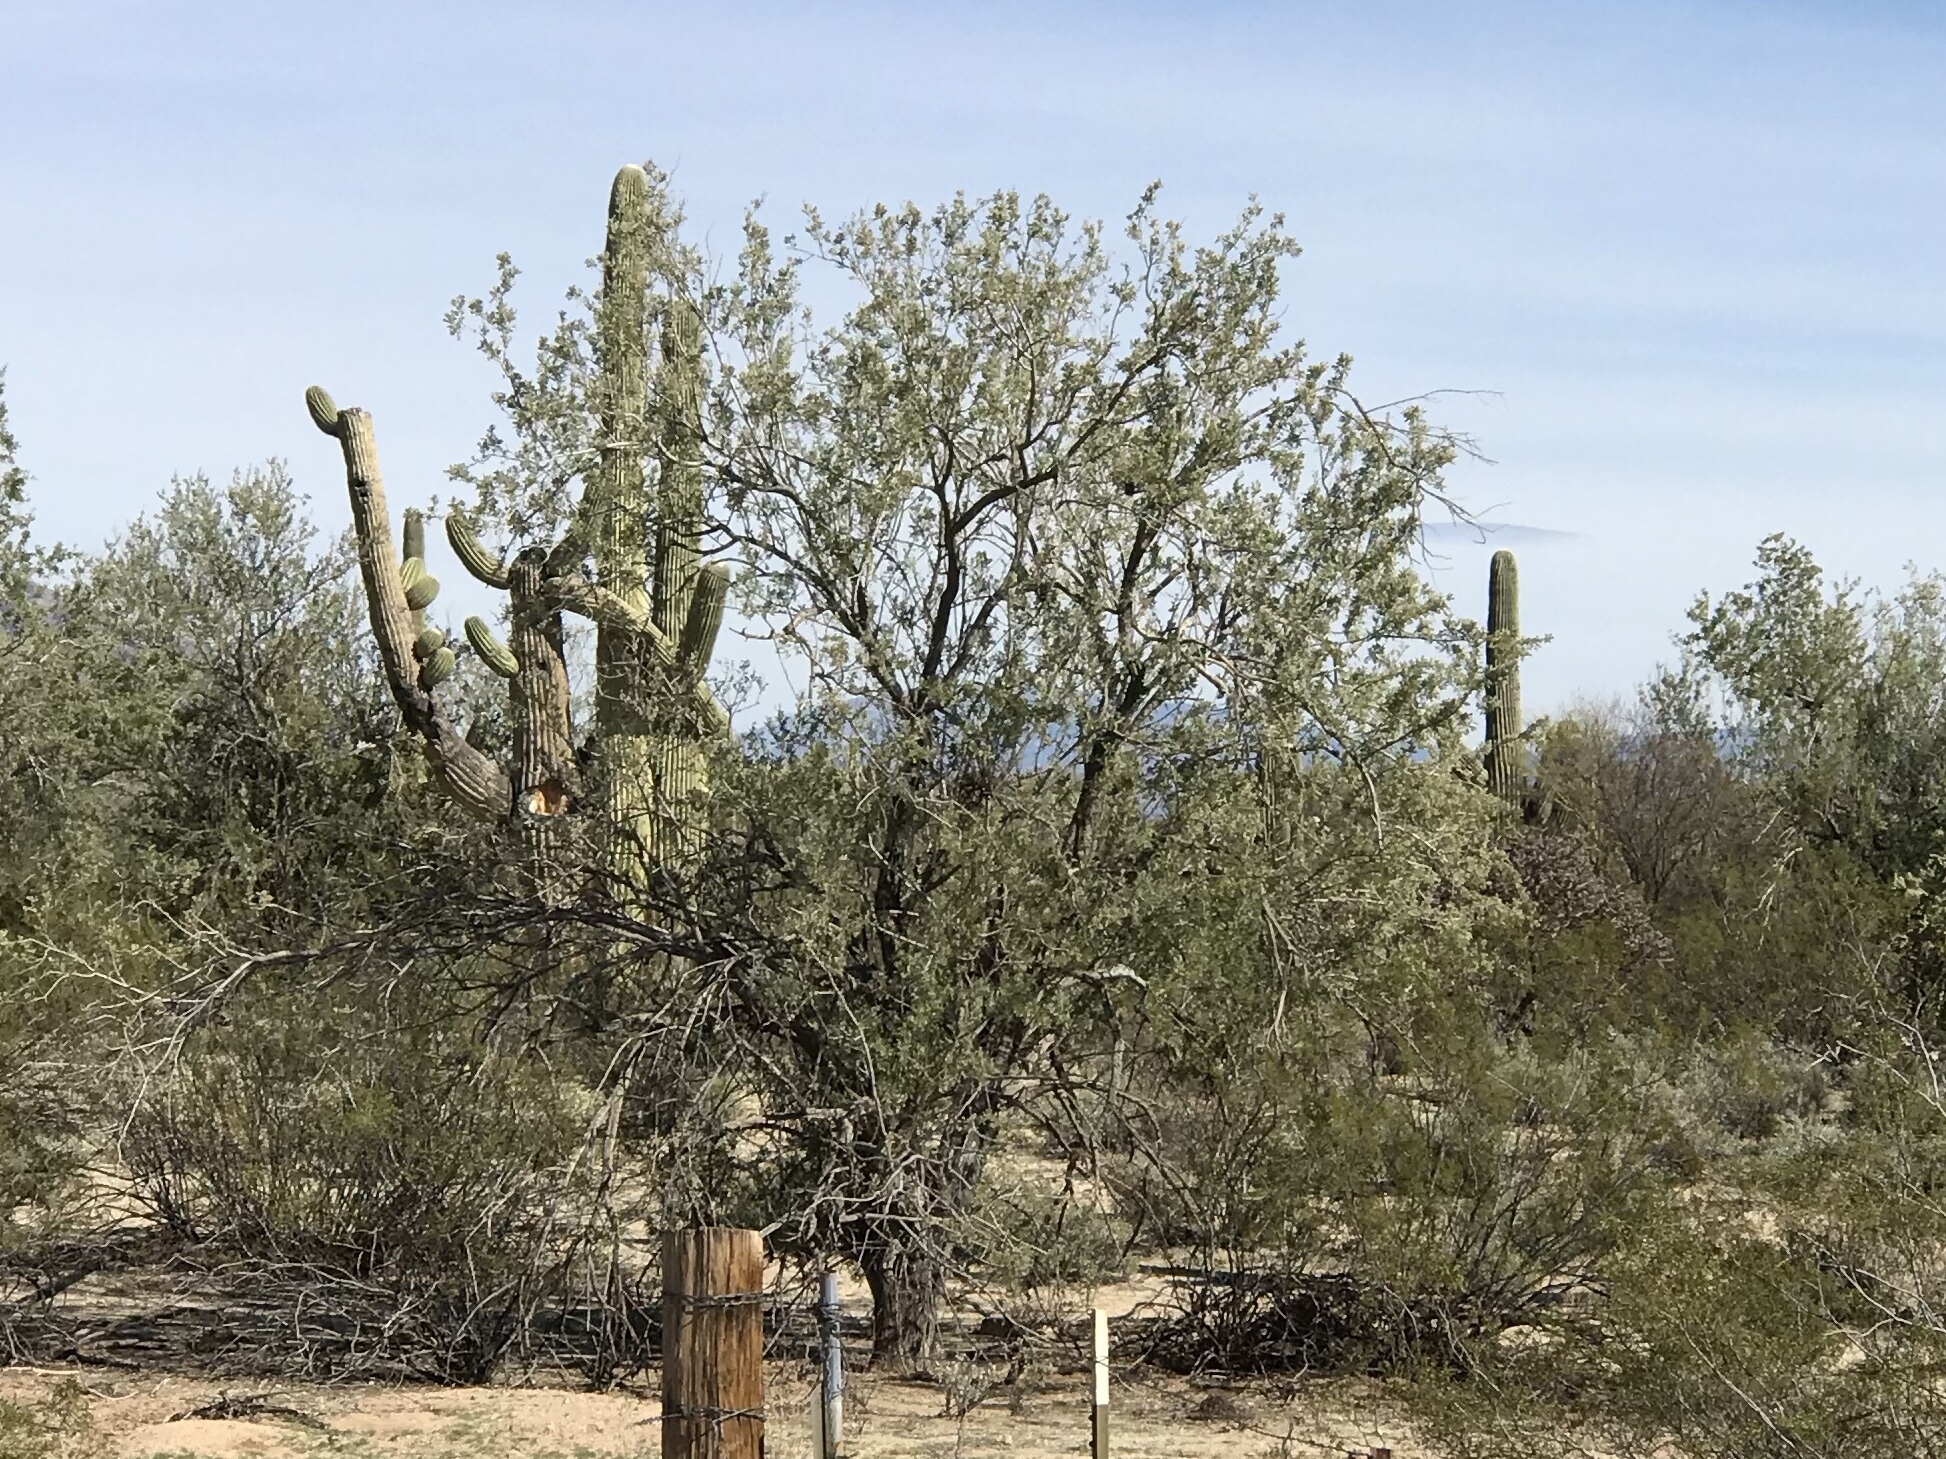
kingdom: Plantae
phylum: Tracheophyta
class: Magnoliopsida
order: Fabales
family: Fabaceae
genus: Olneya
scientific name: Olneya tesota
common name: Desert ironwood
